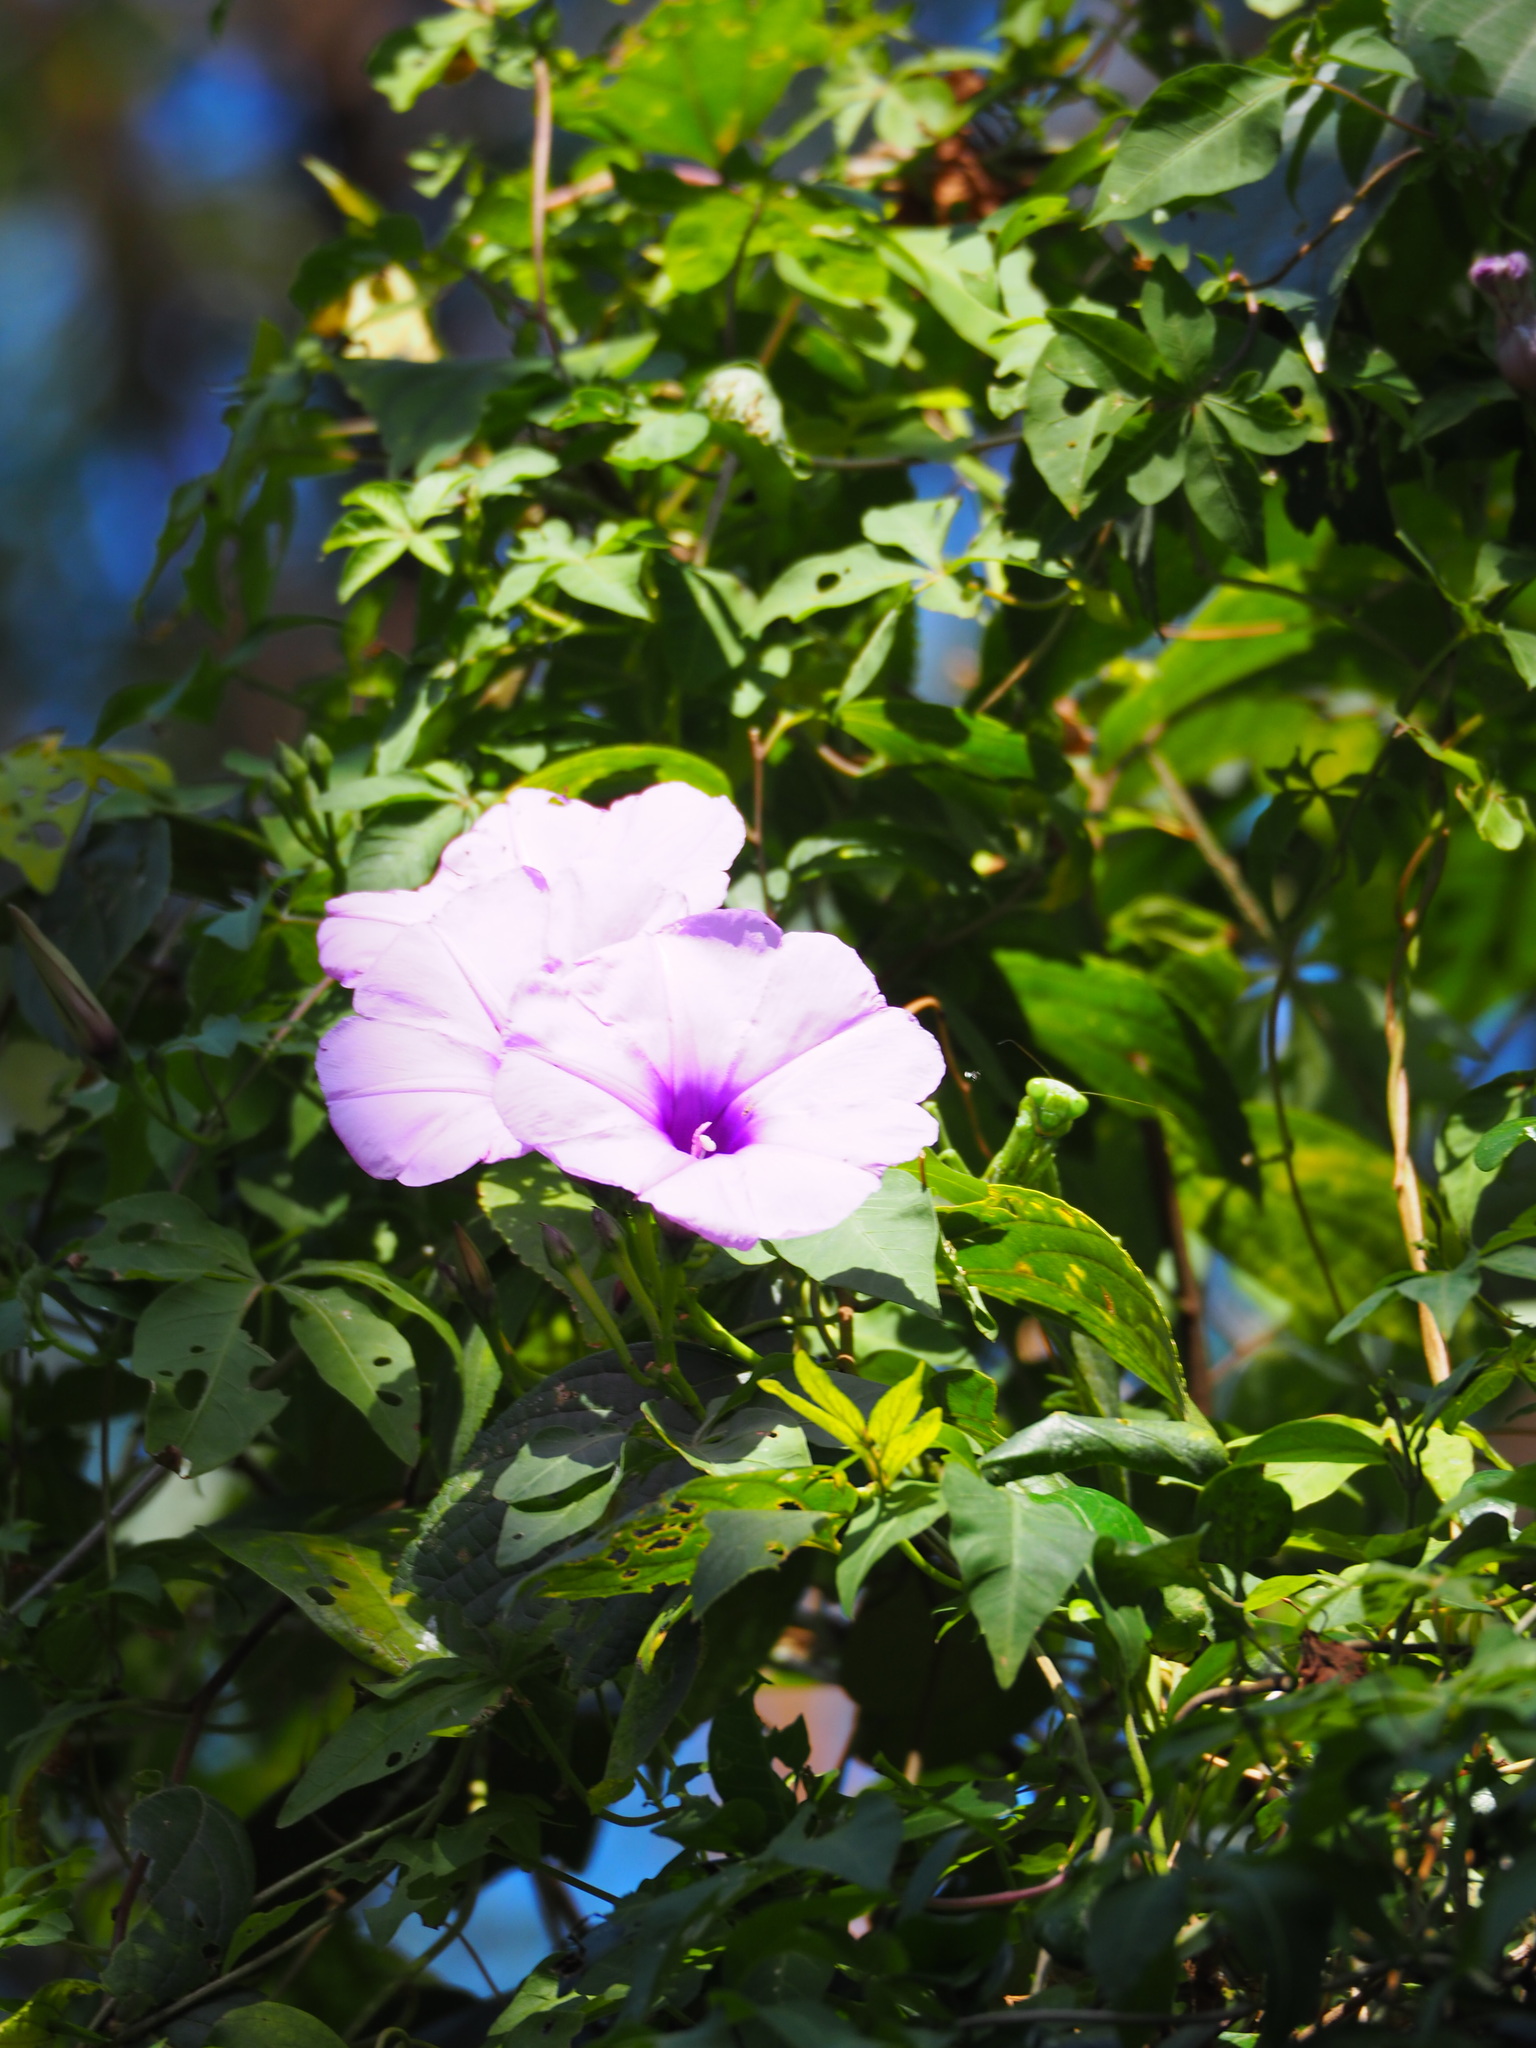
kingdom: Plantae
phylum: Tracheophyta
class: Magnoliopsida
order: Solanales
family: Convolvulaceae
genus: Ipomoea
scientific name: Ipomoea cairica
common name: Mile a minute vine
